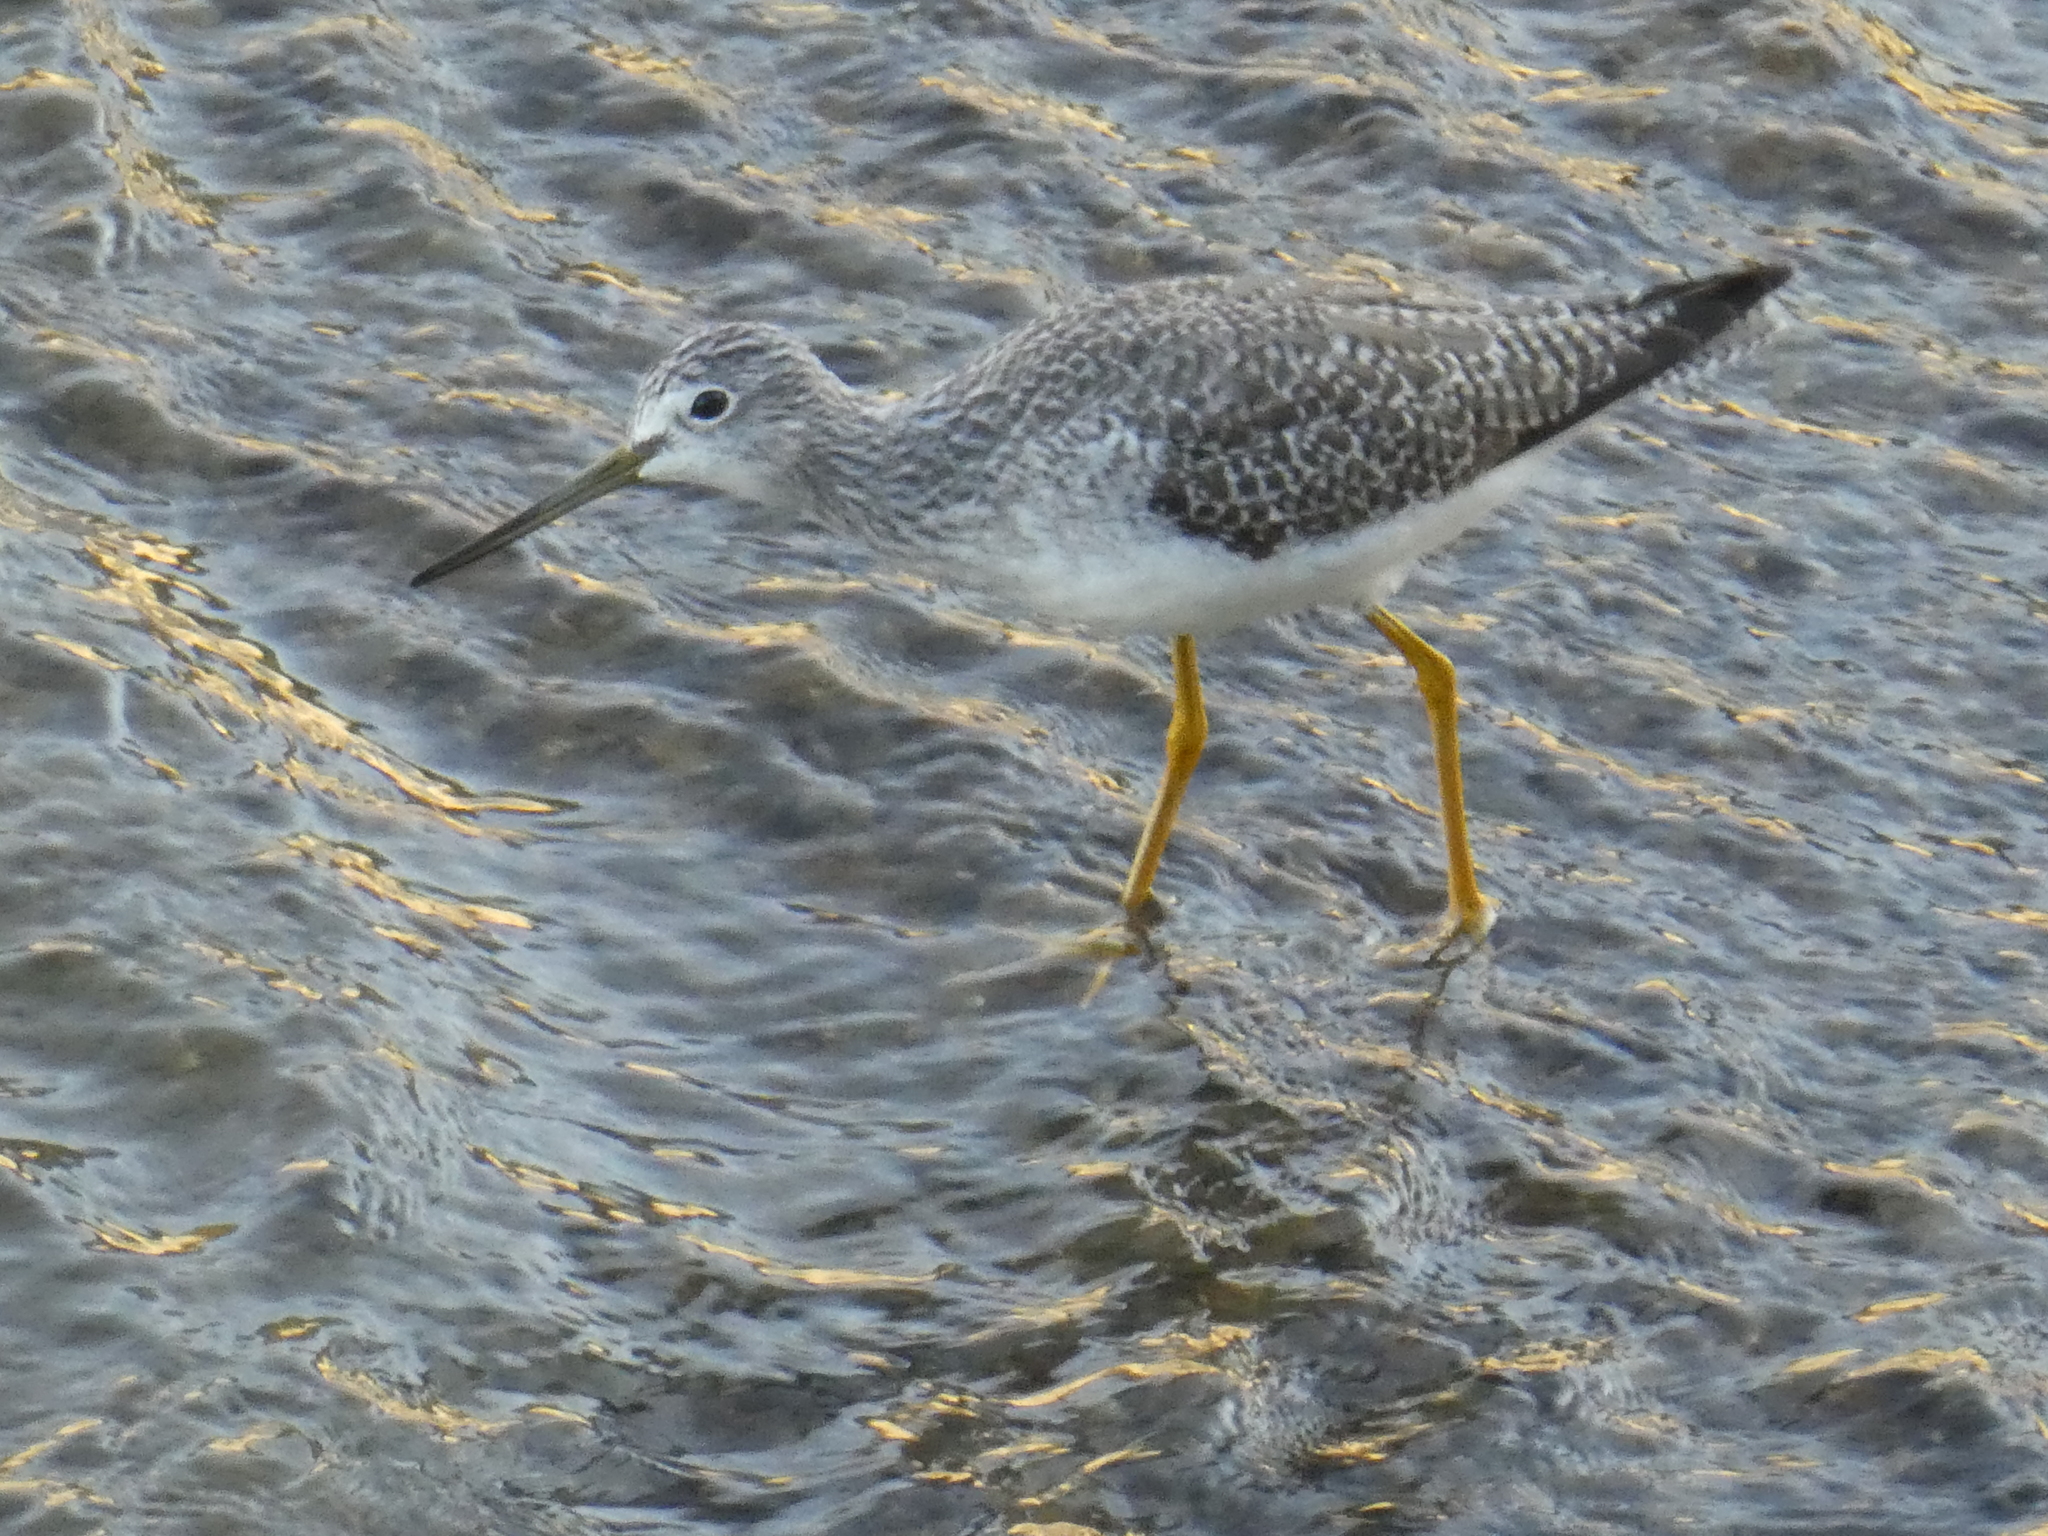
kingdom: Animalia
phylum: Chordata
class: Aves
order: Charadriiformes
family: Scolopacidae
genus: Tringa
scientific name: Tringa melanoleuca
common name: Greater yellowlegs
